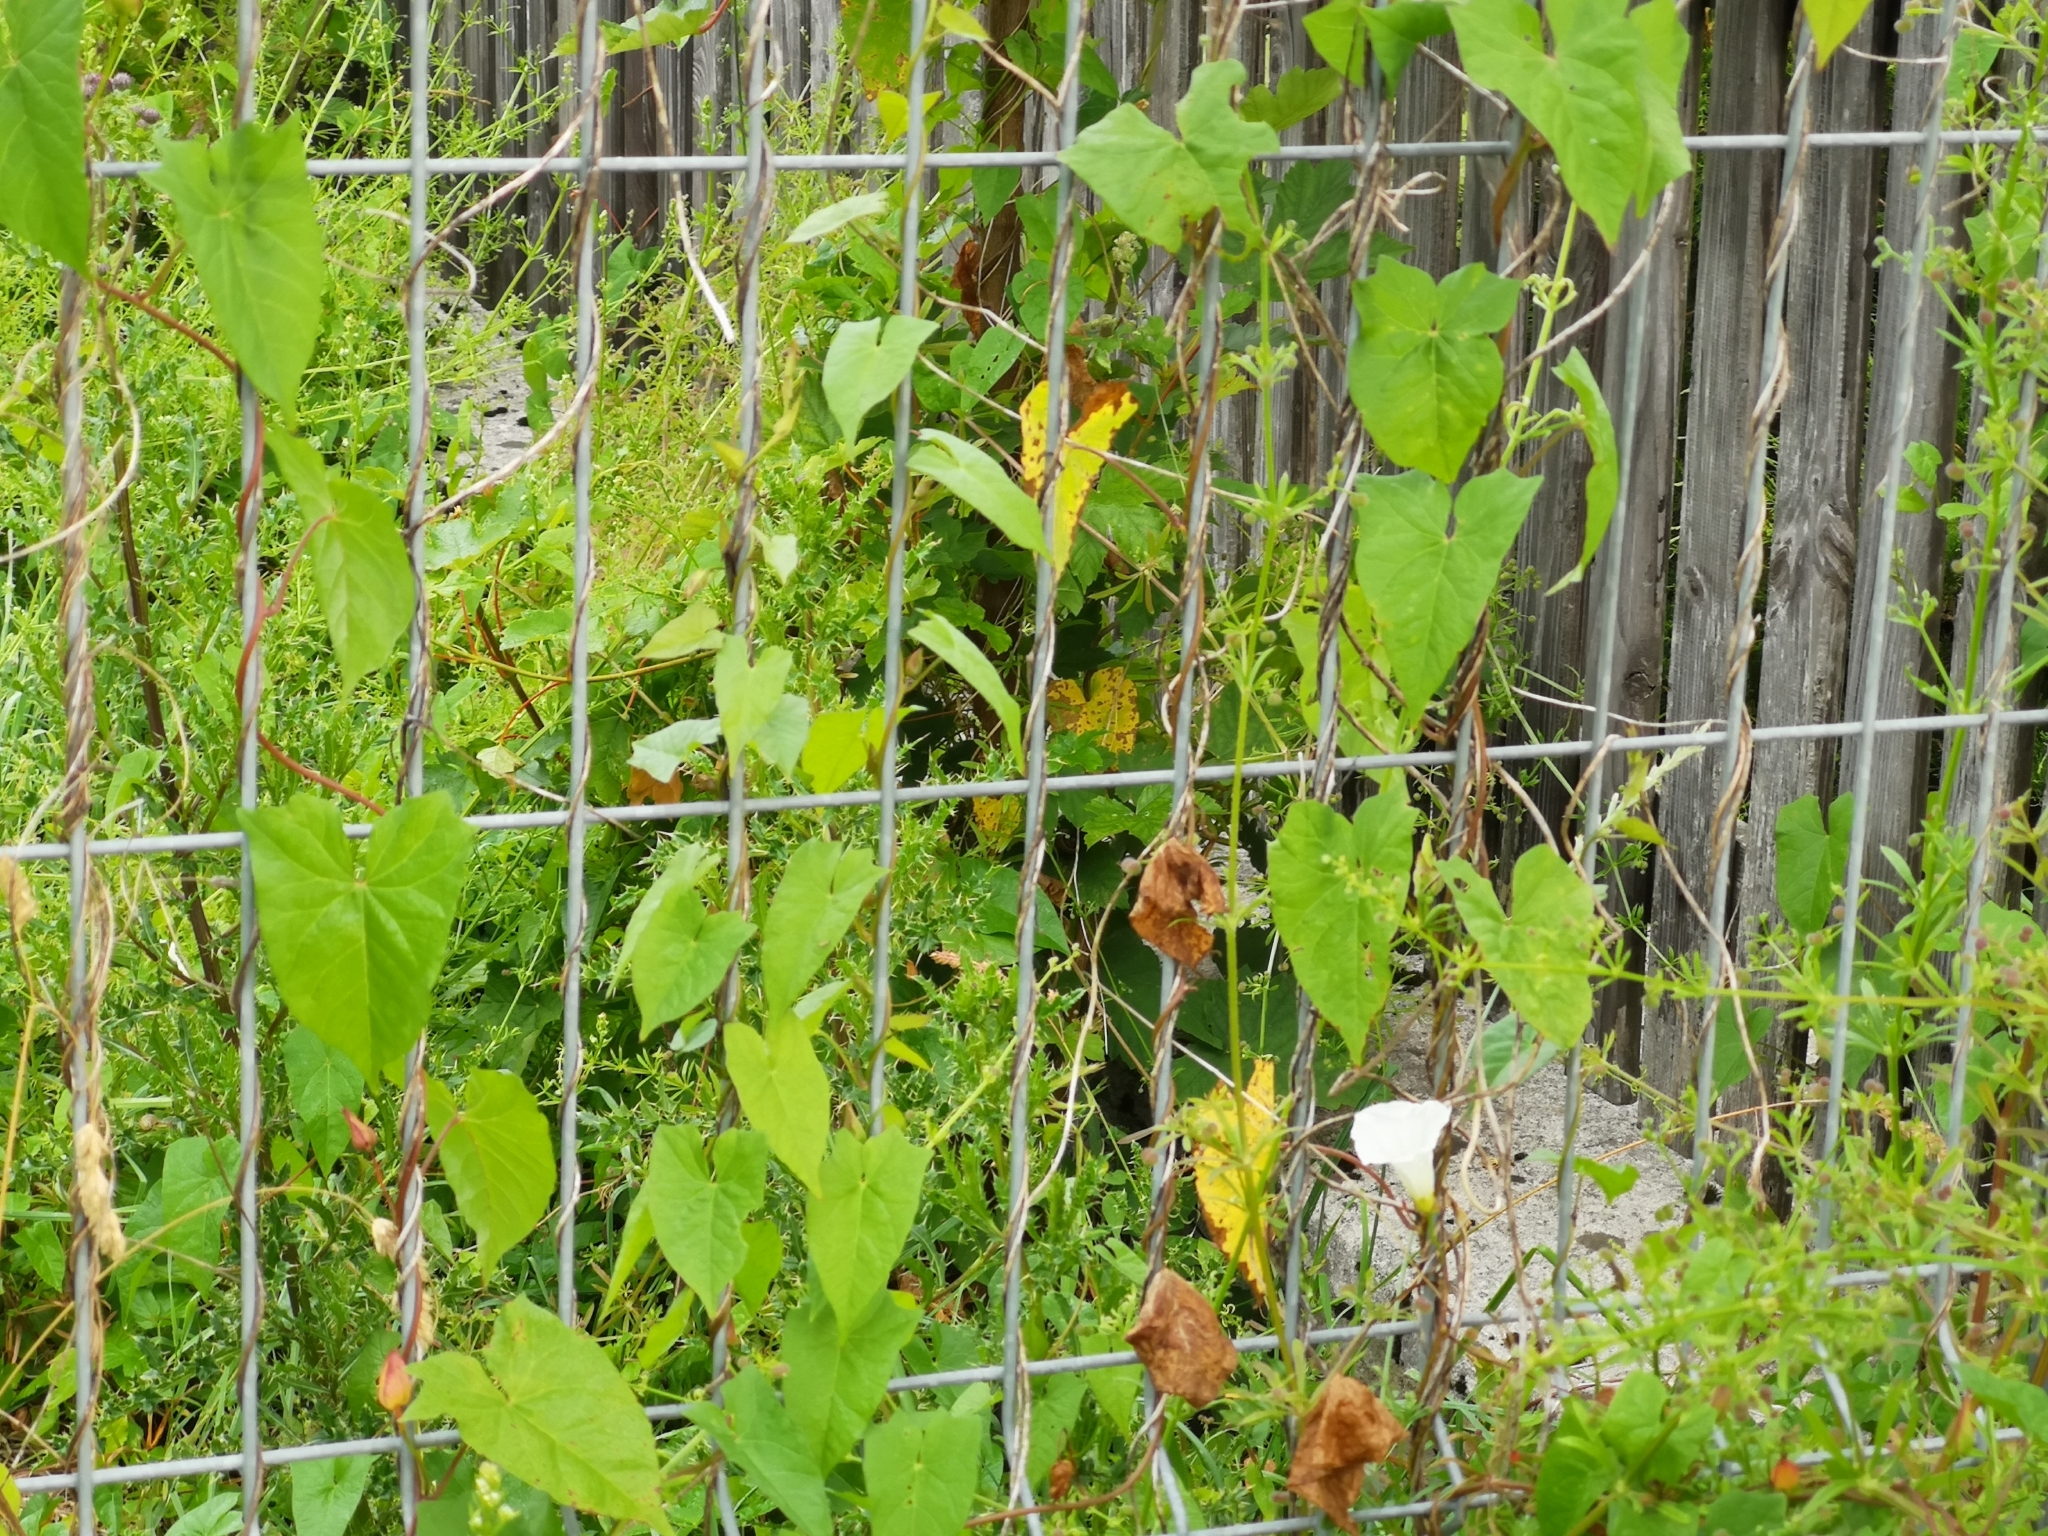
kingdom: Plantae
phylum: Tracheophyta
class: Magnoliopsida
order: Solanales
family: Convolvulaceae
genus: Calystegia
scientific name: Calystegia sepium
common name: Hedge bindweed
